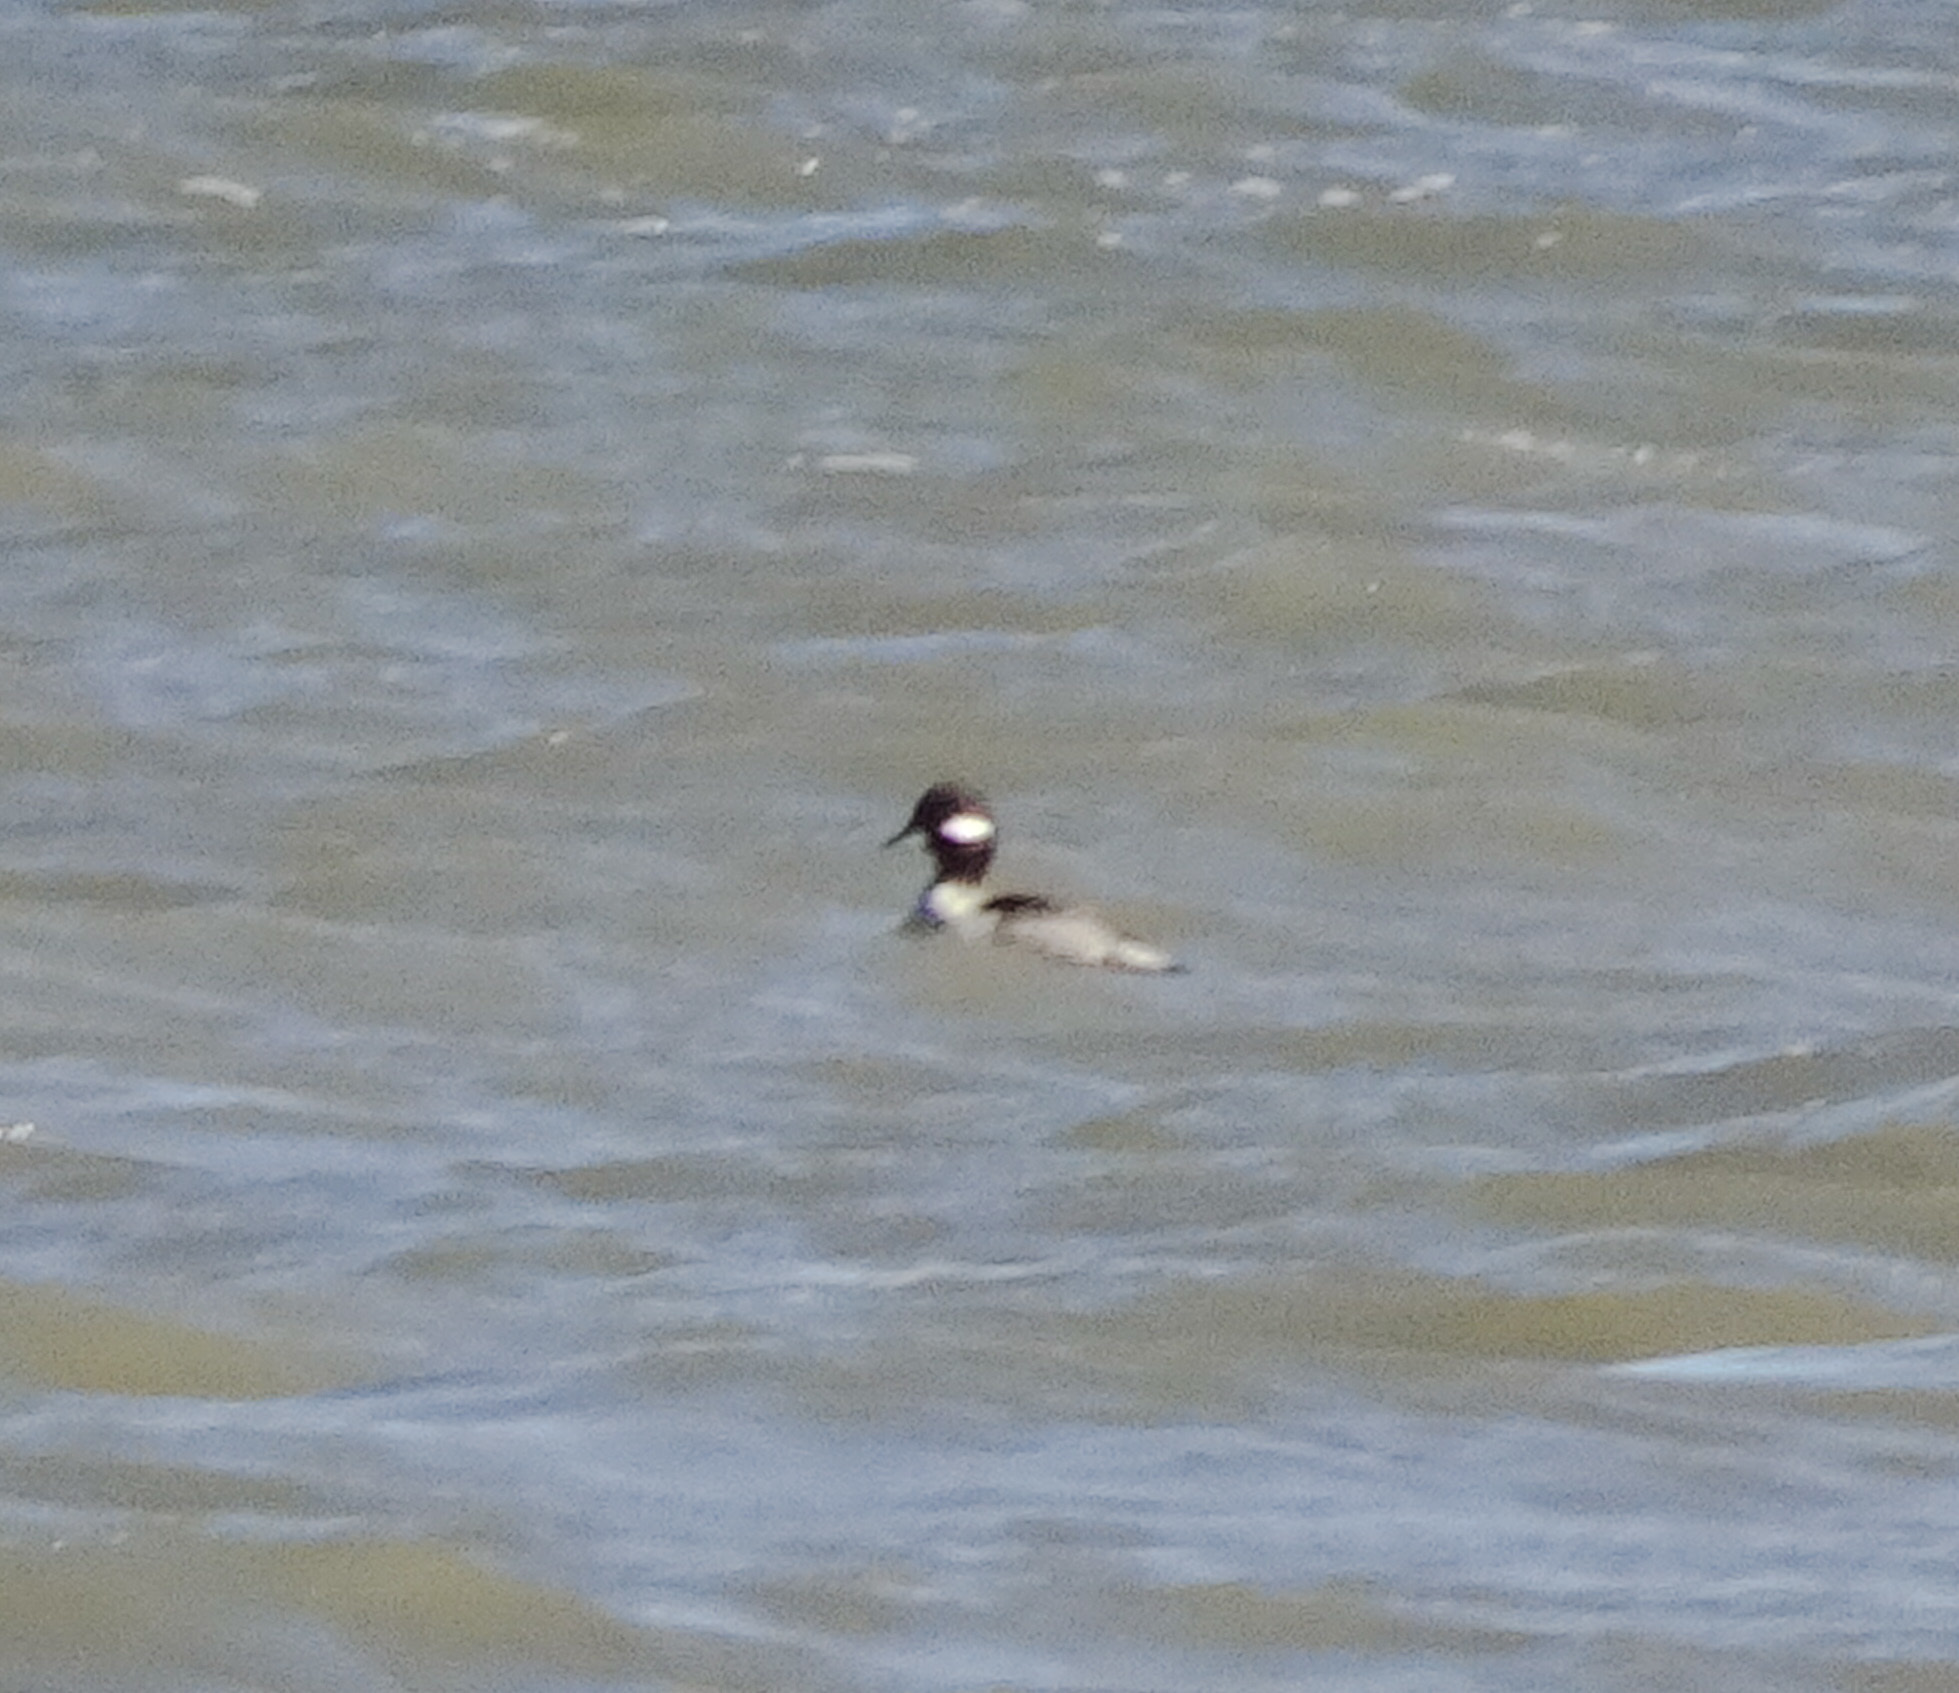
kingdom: Animalia
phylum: Chordata
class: Aves
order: Anseriformes
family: Anatidae
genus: Bucephala
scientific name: Bucephala albeola
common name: Bufflehead
